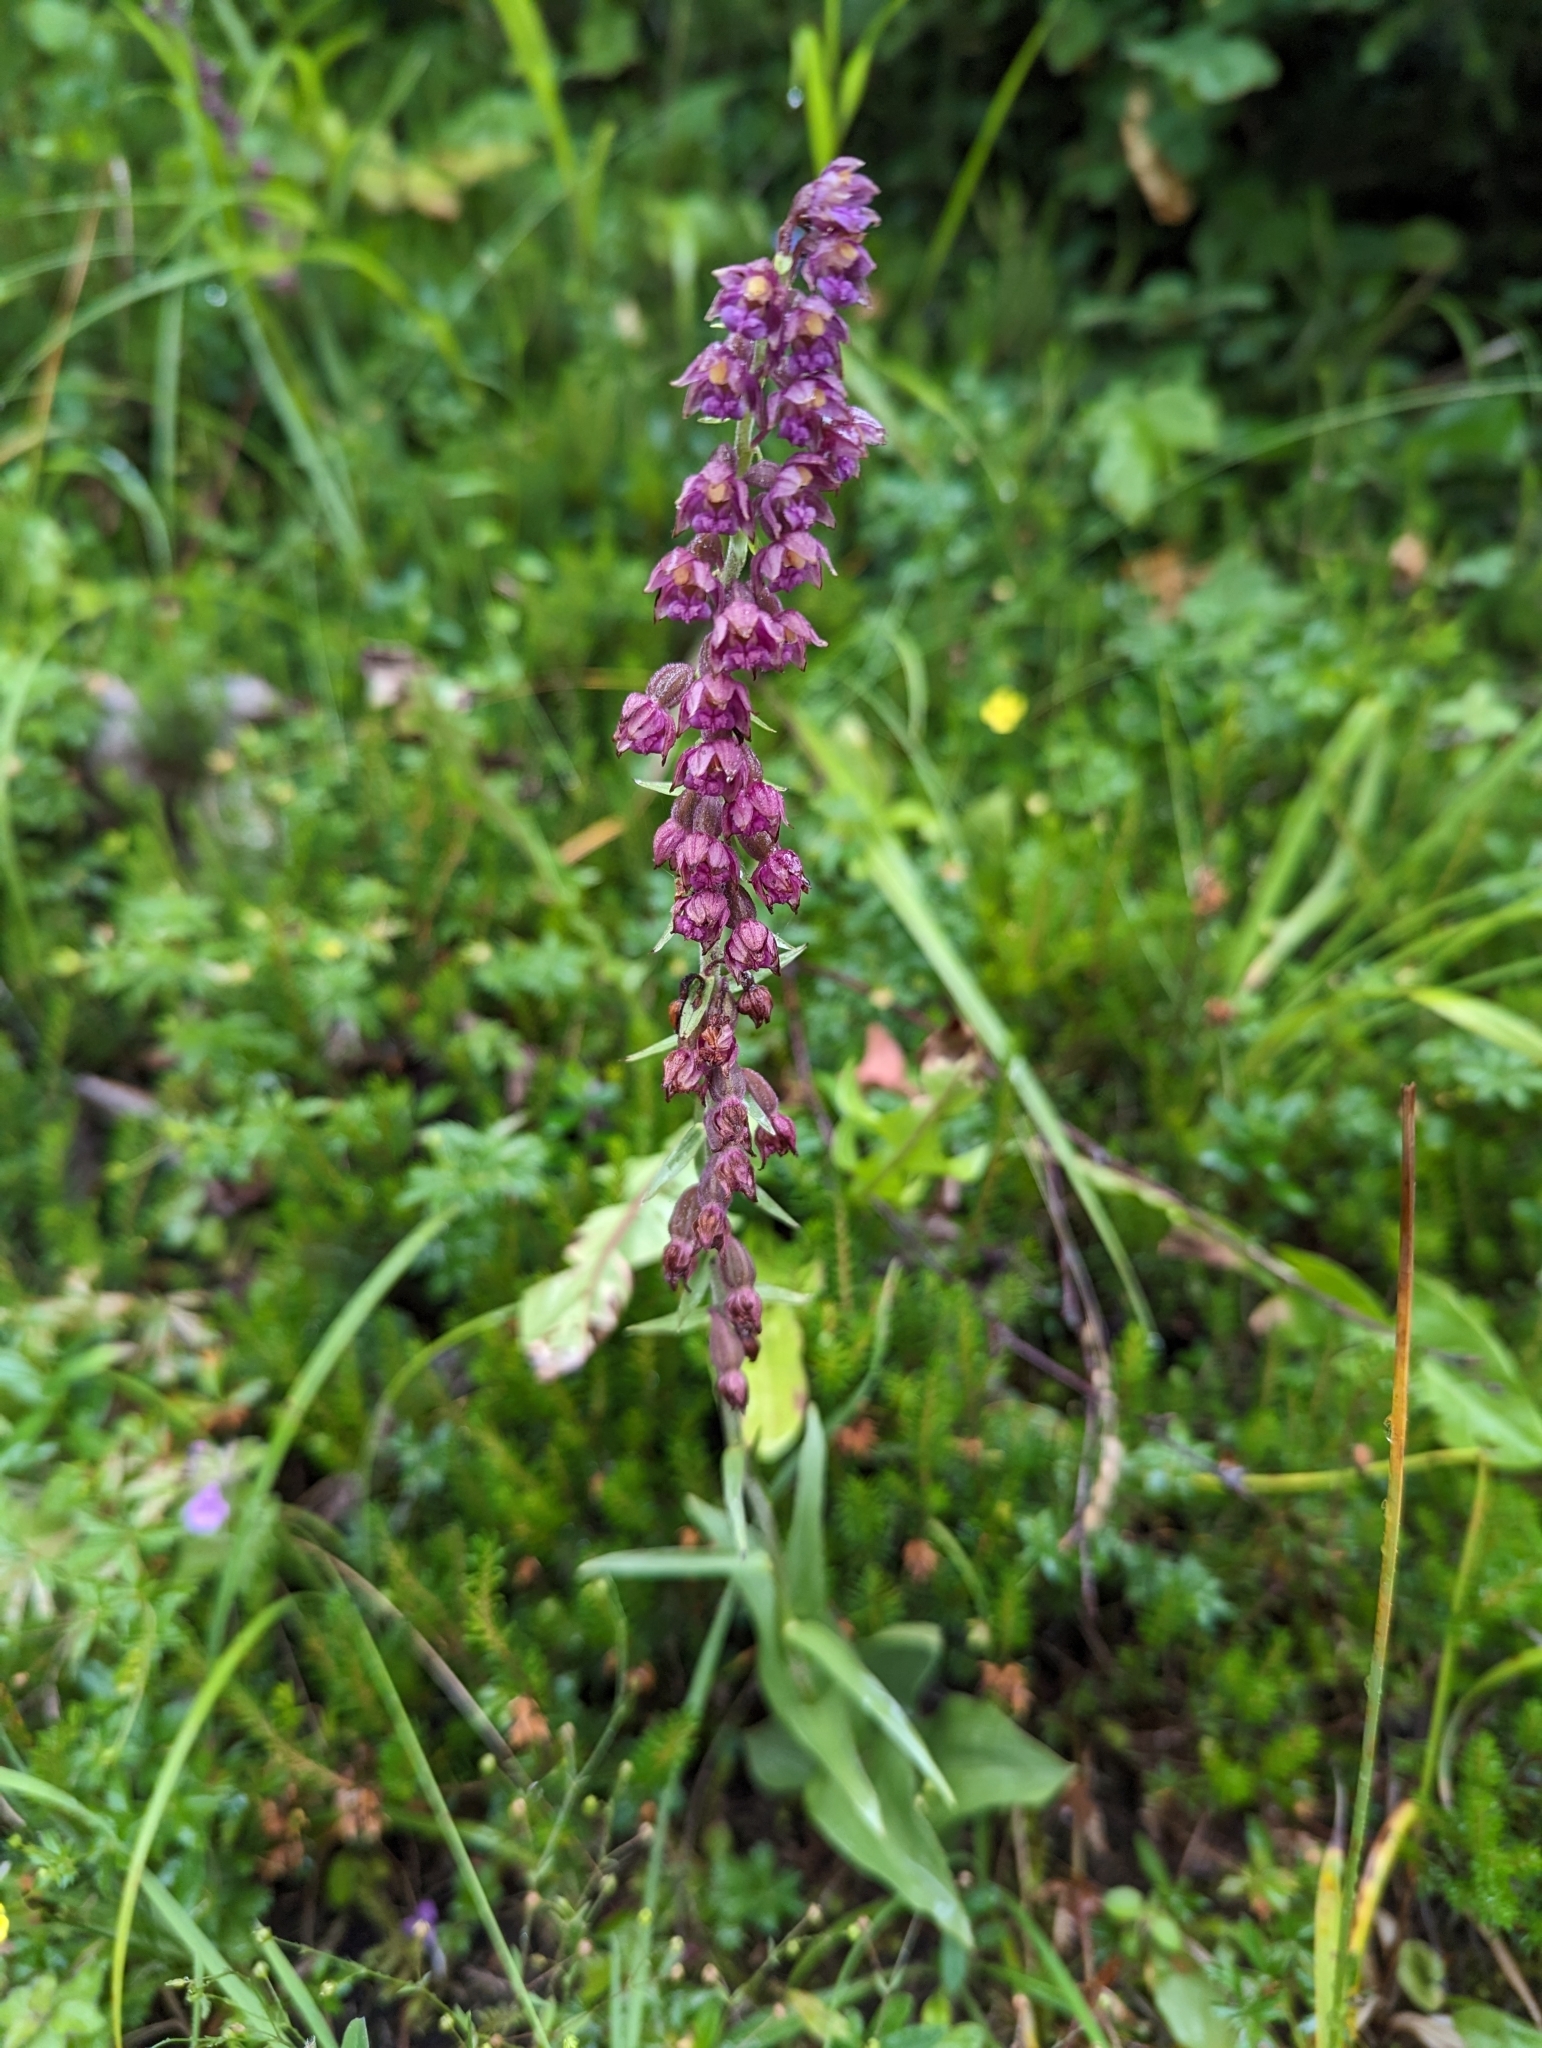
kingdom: Plantae
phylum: Tracheophyta
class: Liliopsida
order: Asparagales
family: Orchidaceae
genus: Epipactis
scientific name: Epipactis atrorubens
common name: Dark-red helleborine
